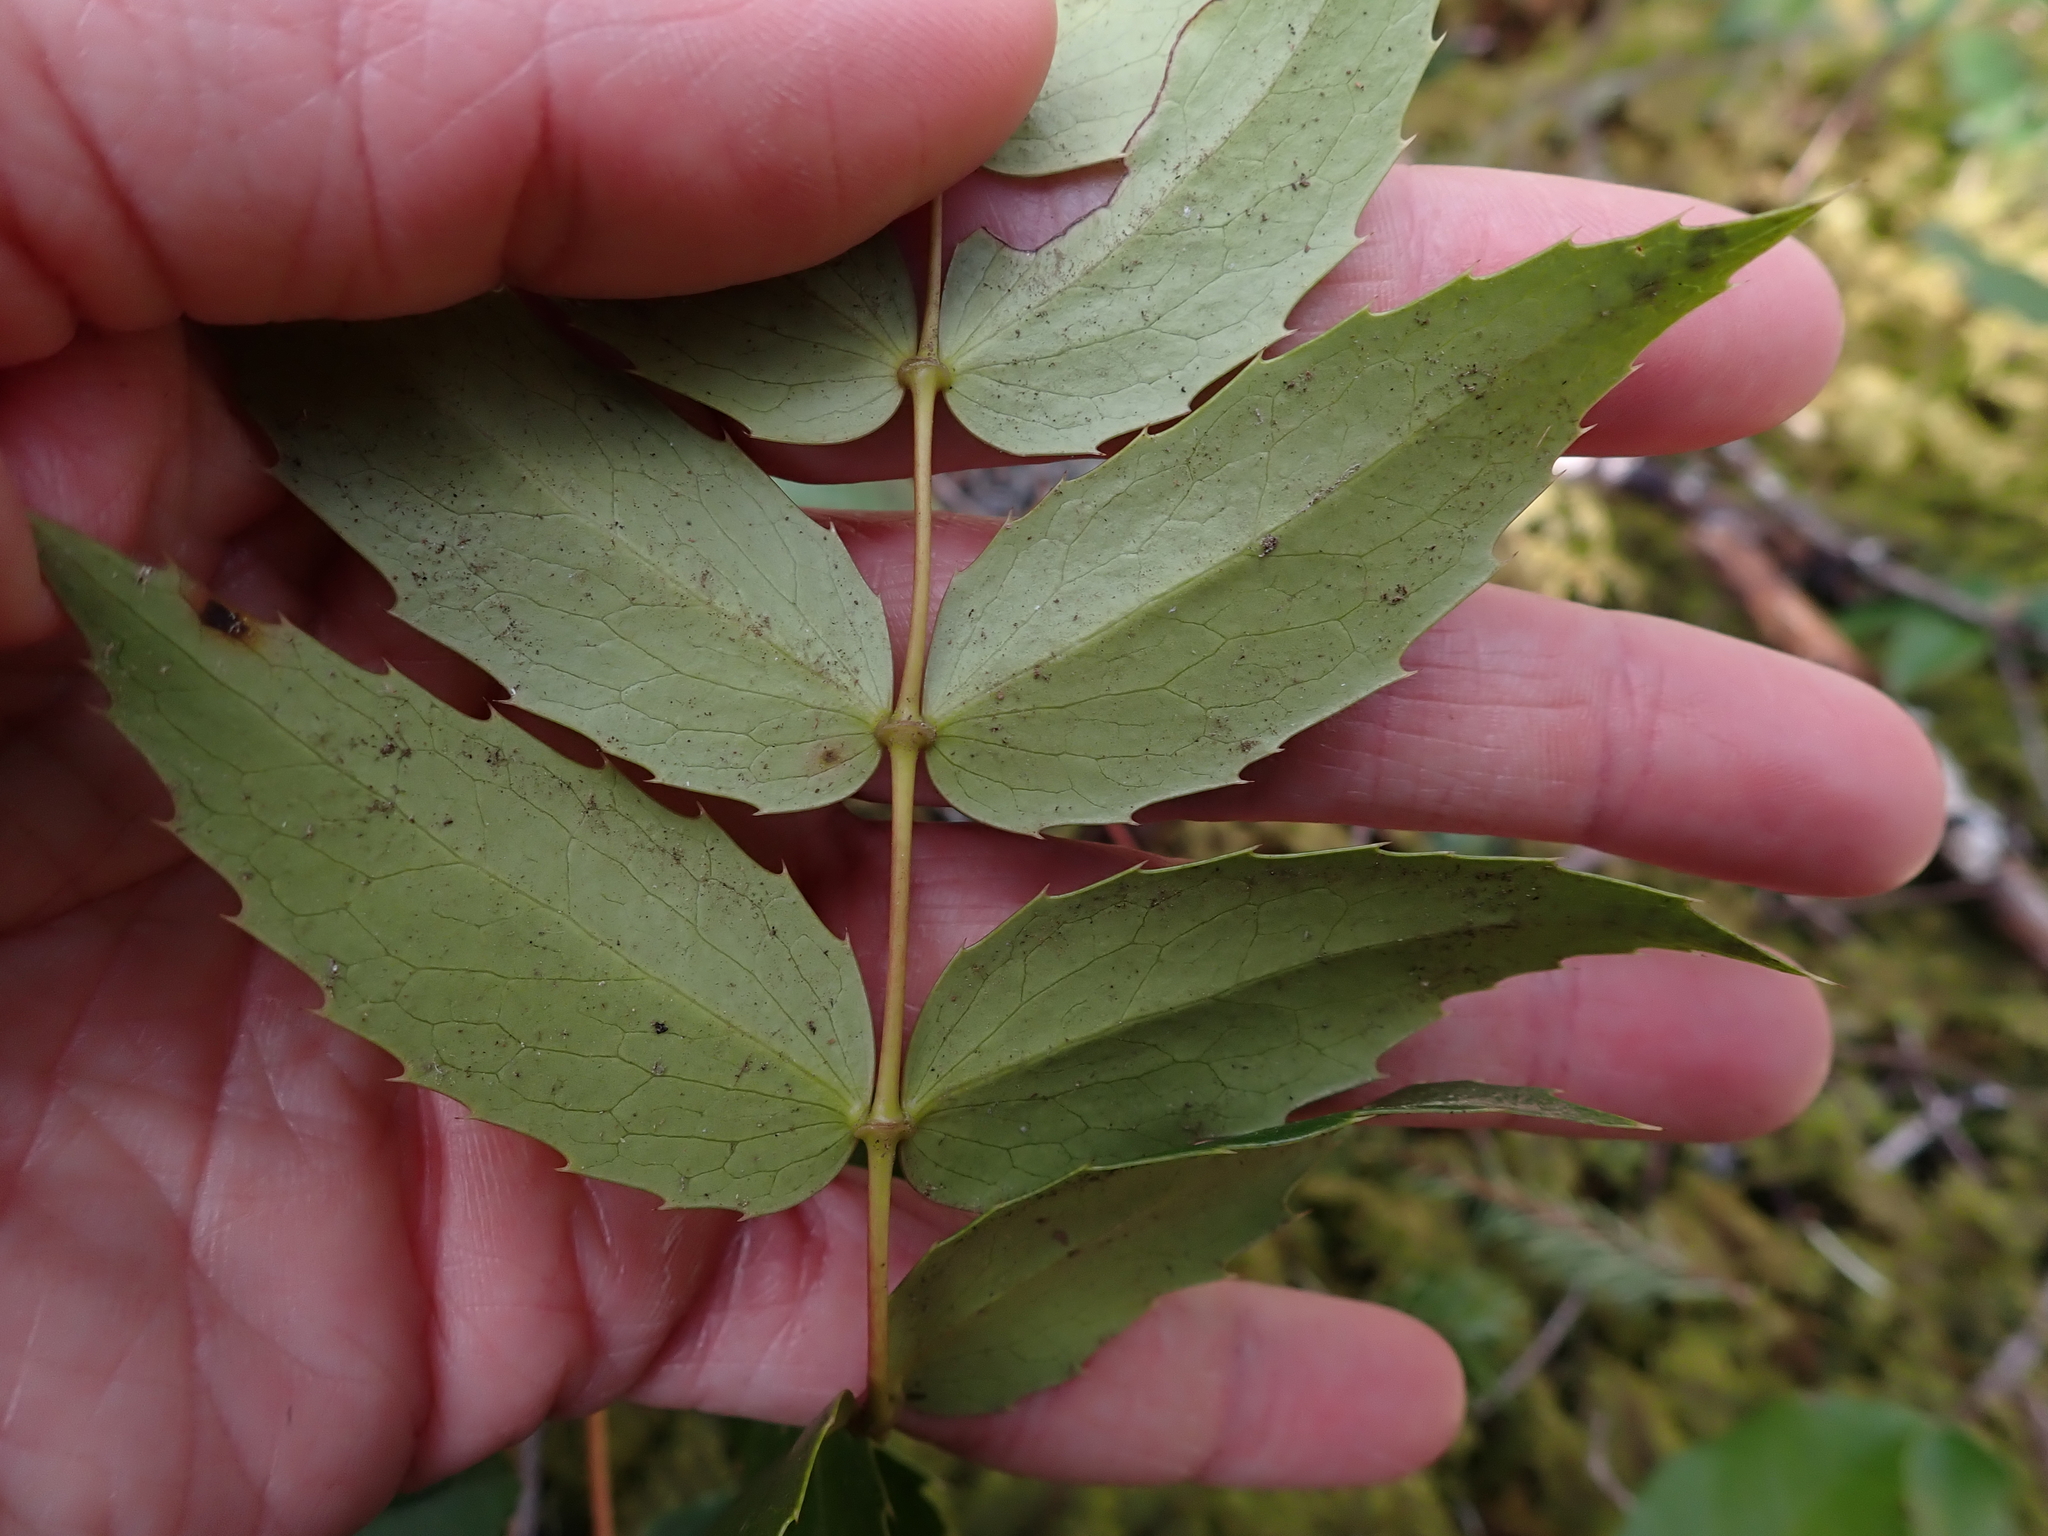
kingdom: Plantae
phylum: Tracheophyta
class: Magnoliopsida
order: Ranunculales
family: Berberidaceae
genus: Mahonia
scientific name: Mahonia nervosa
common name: Cascade oregon-grape
